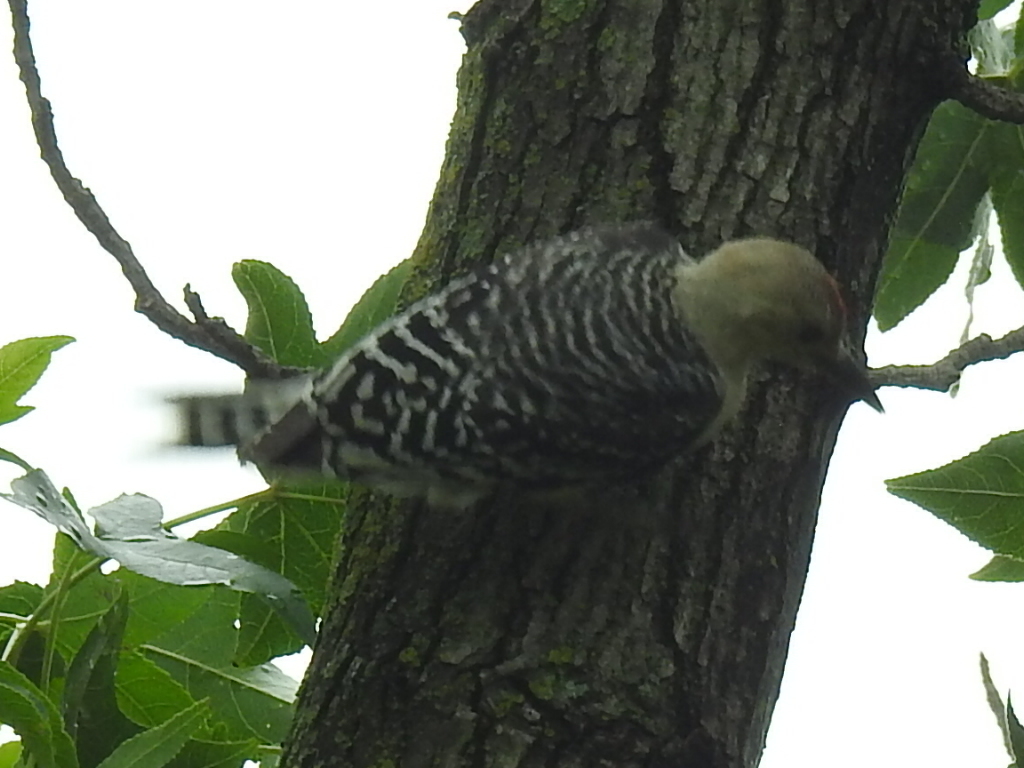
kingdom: Animalia
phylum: Chordata
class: Aves
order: Piciformes
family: Picidae
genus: Melanerpes
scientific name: Melanerpes carolinus
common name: Red-bellied woodpecker
